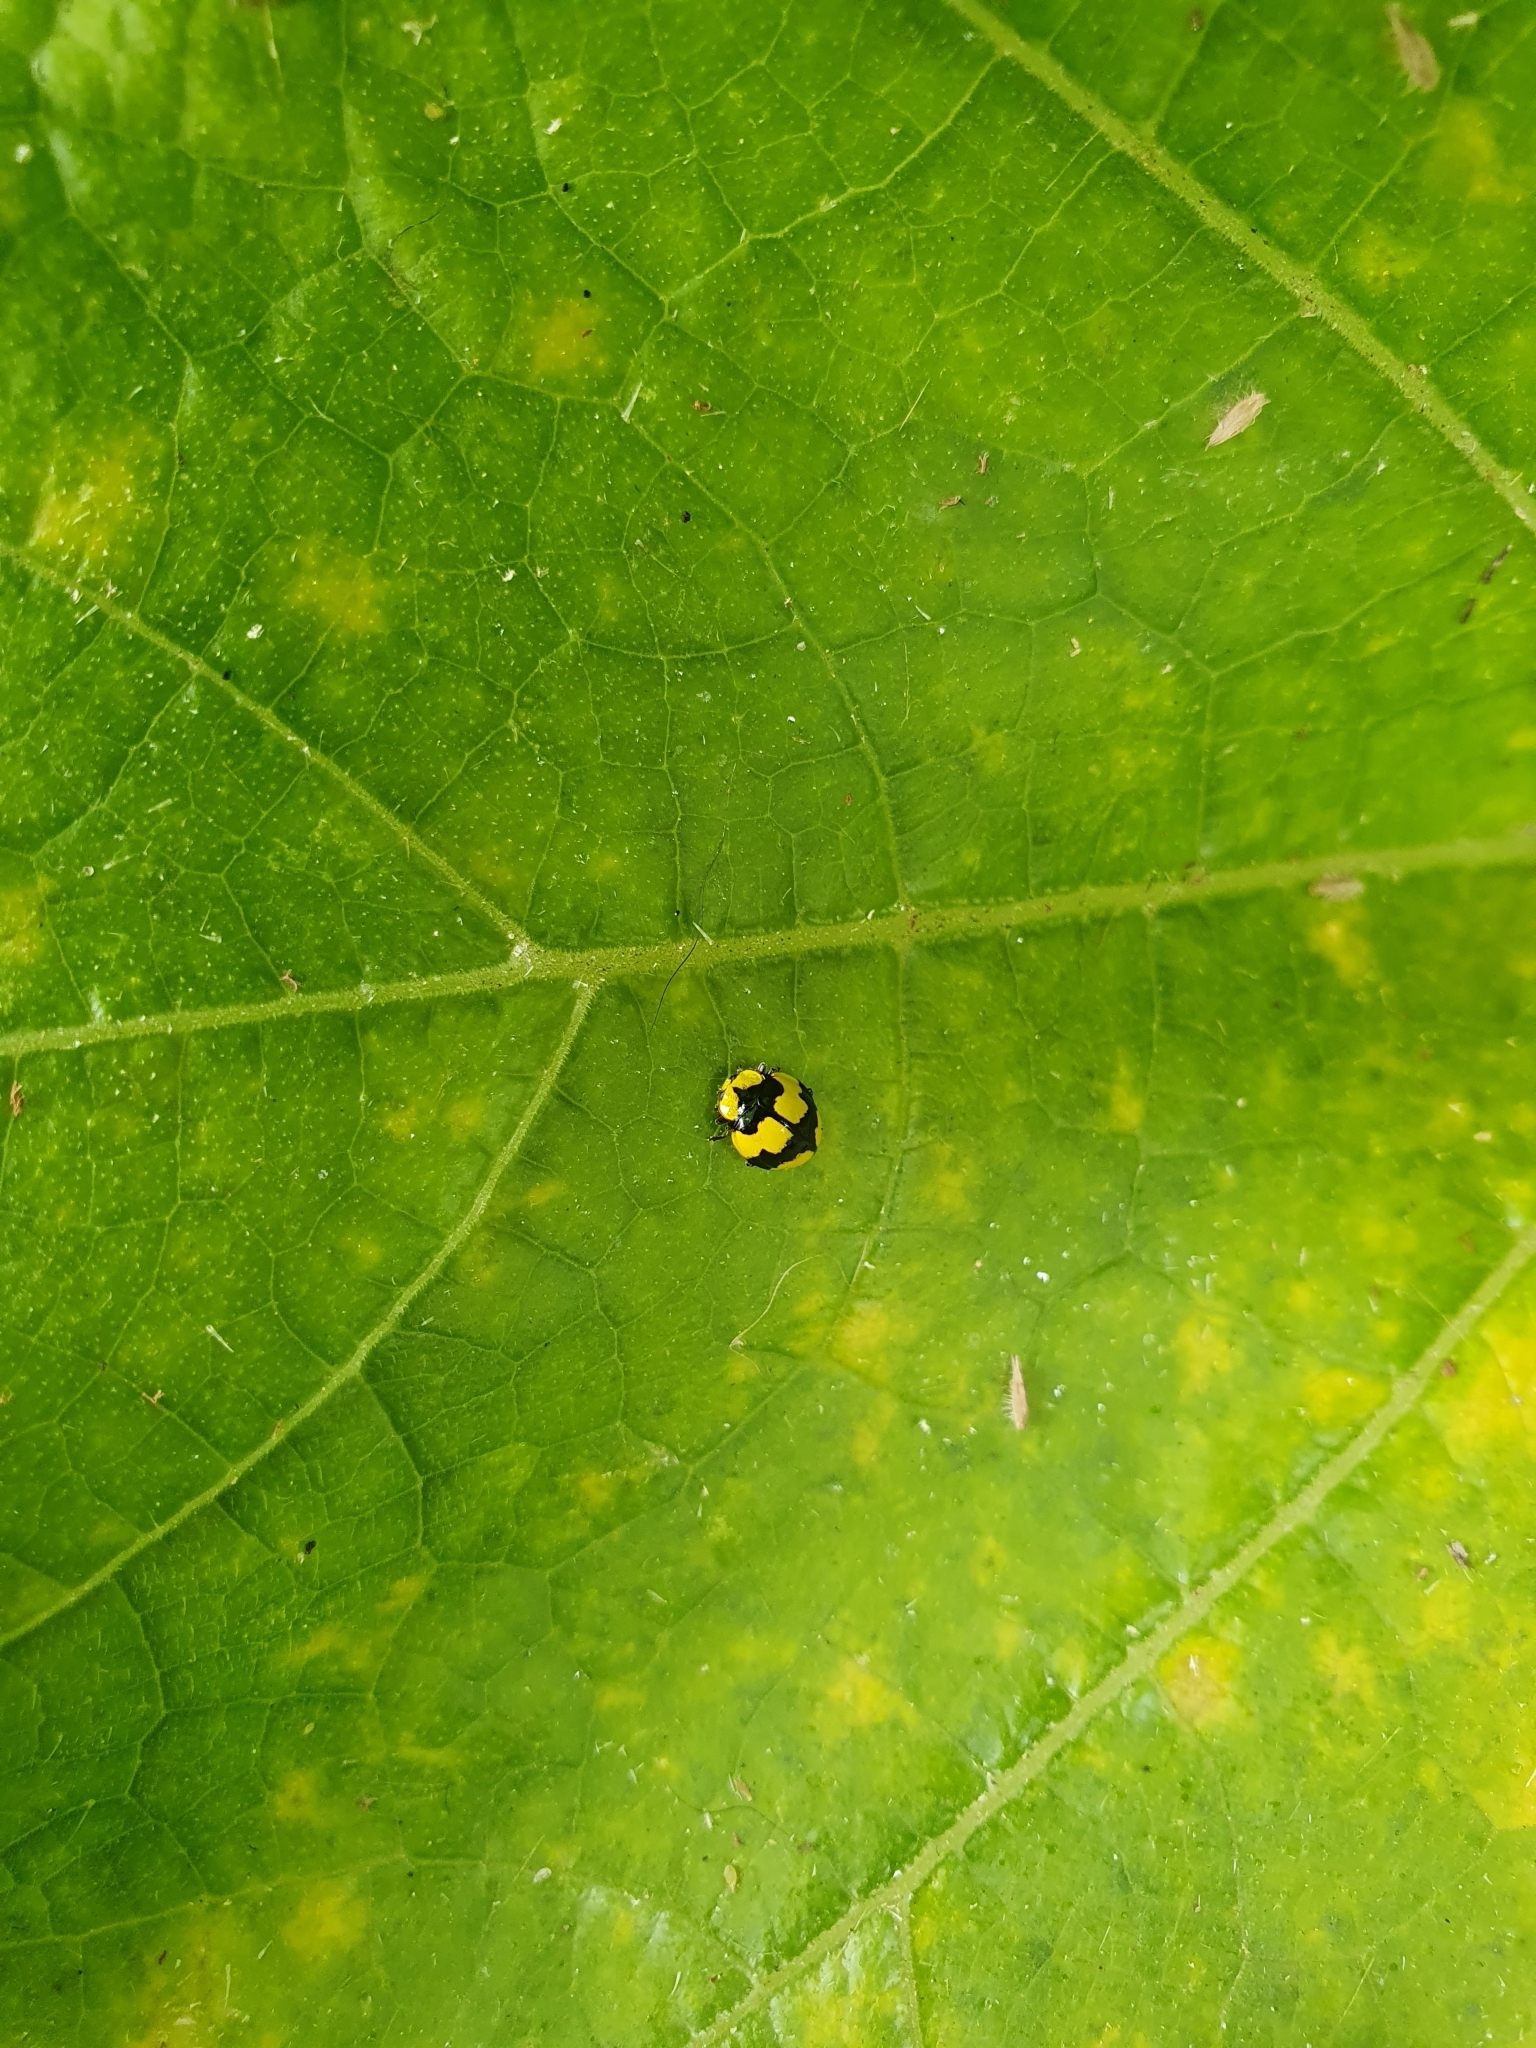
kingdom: Animalia
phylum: Arthropoda
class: Insecta
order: Coleoptera
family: Coccinellidae
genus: Illeis
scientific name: Illeis galbula
